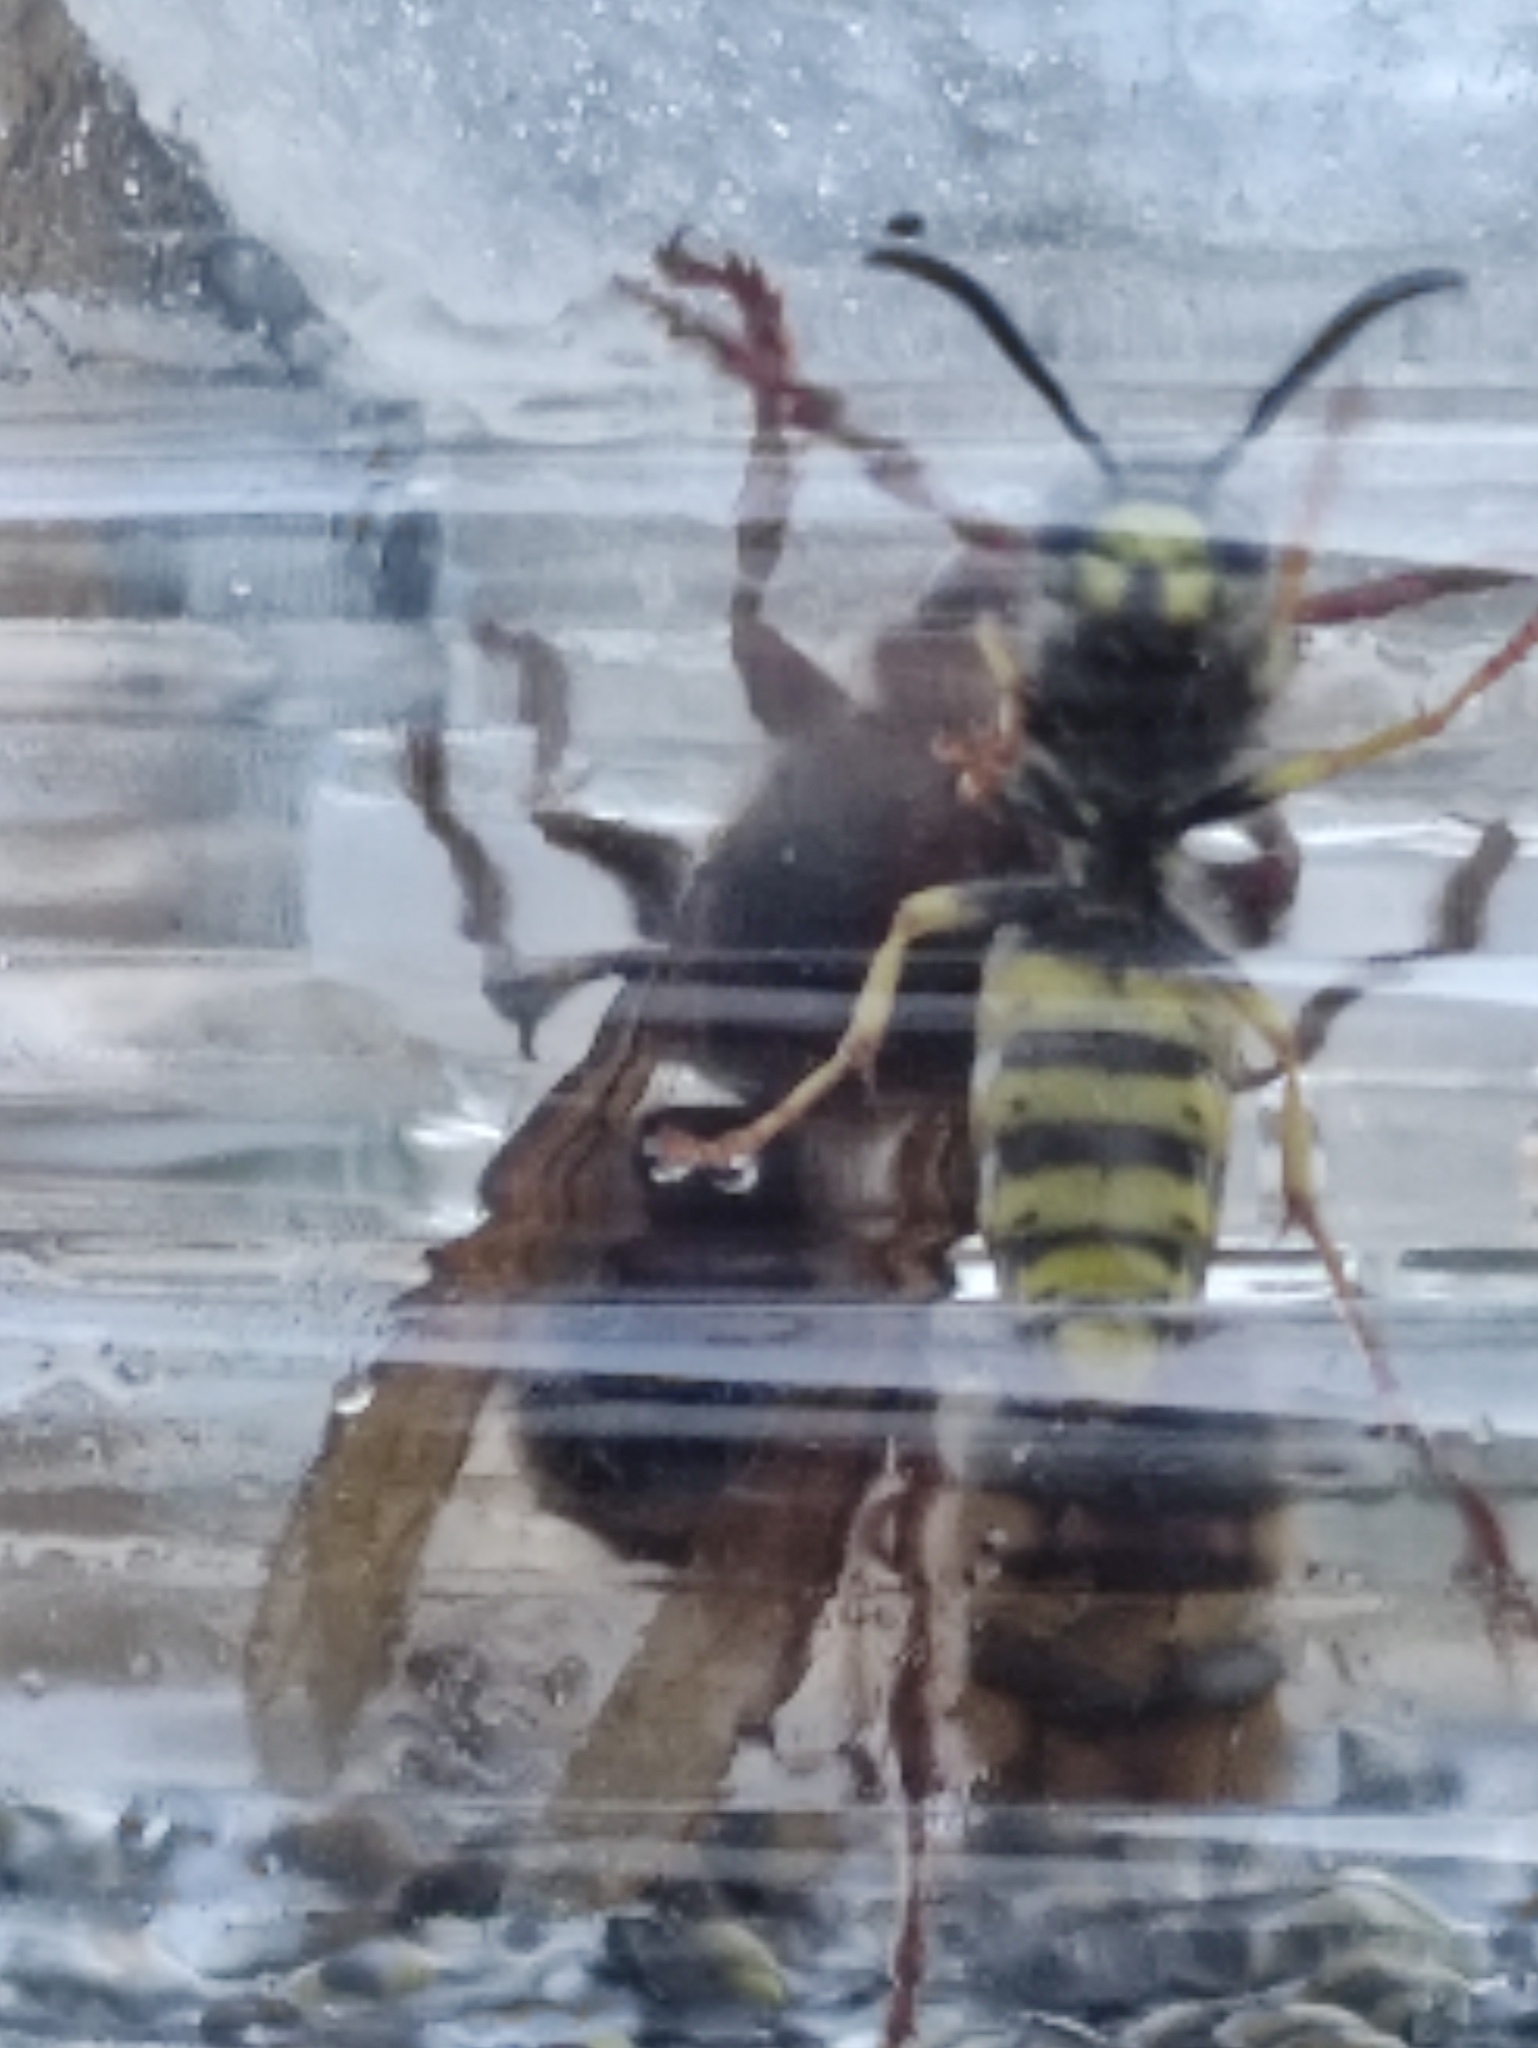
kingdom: Animalia
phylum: Arthropoda
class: Insecta
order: Hymenoptera
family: Vespidae
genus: Vespa
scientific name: Vespa crabro
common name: Hornet
